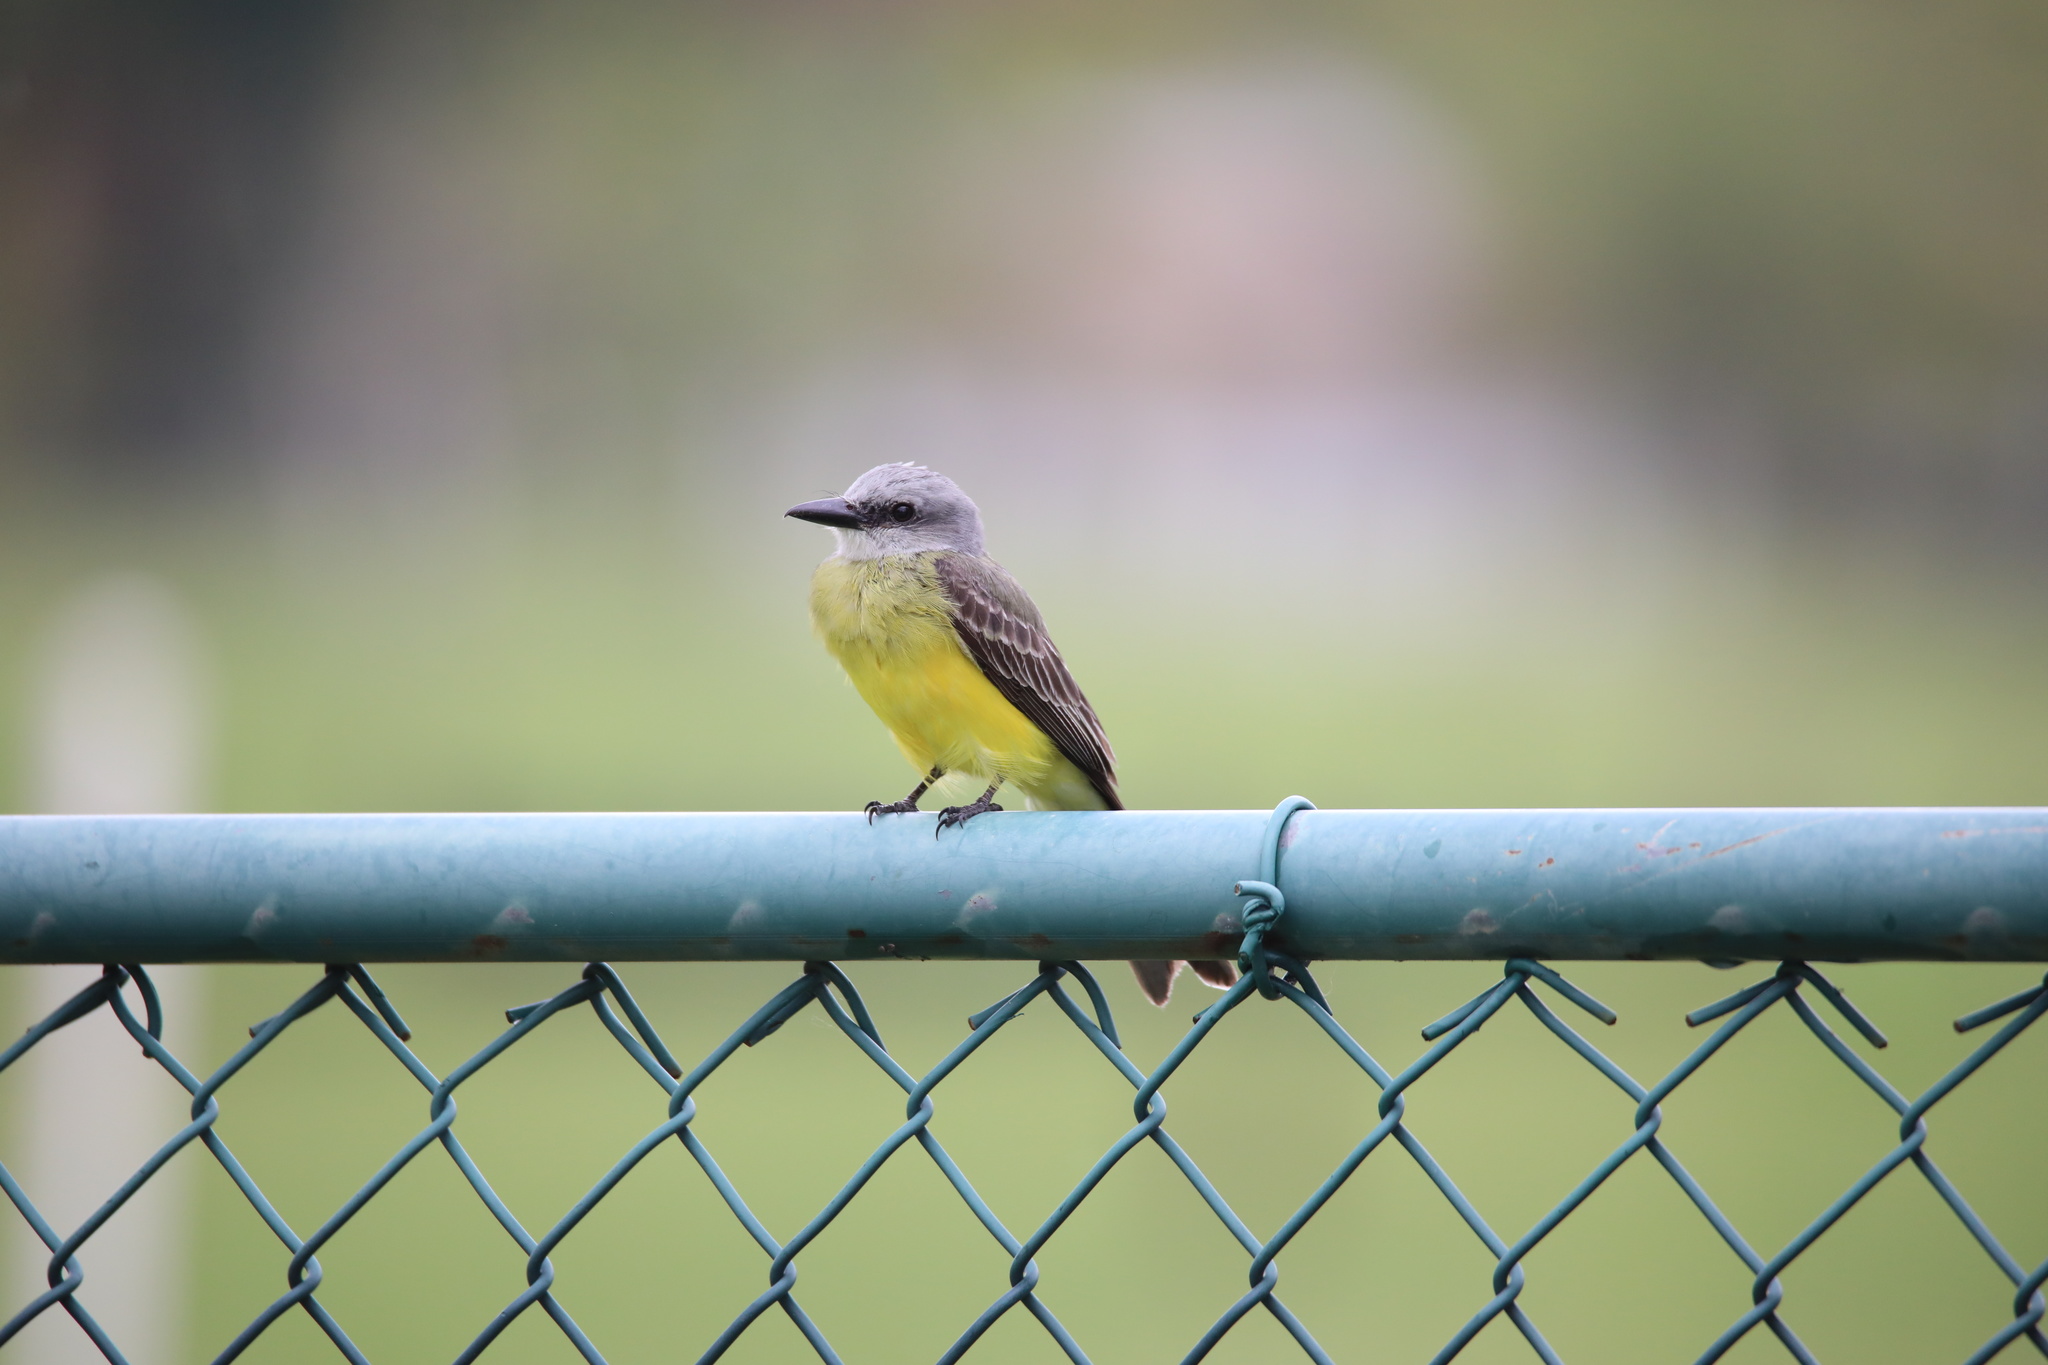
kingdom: Animalia
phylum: Chordata
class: Aves
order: Passeriformes
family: Tyrannidae
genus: Tyrannus
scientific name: Tyrannus melancholicus
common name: Tropical kingbird
